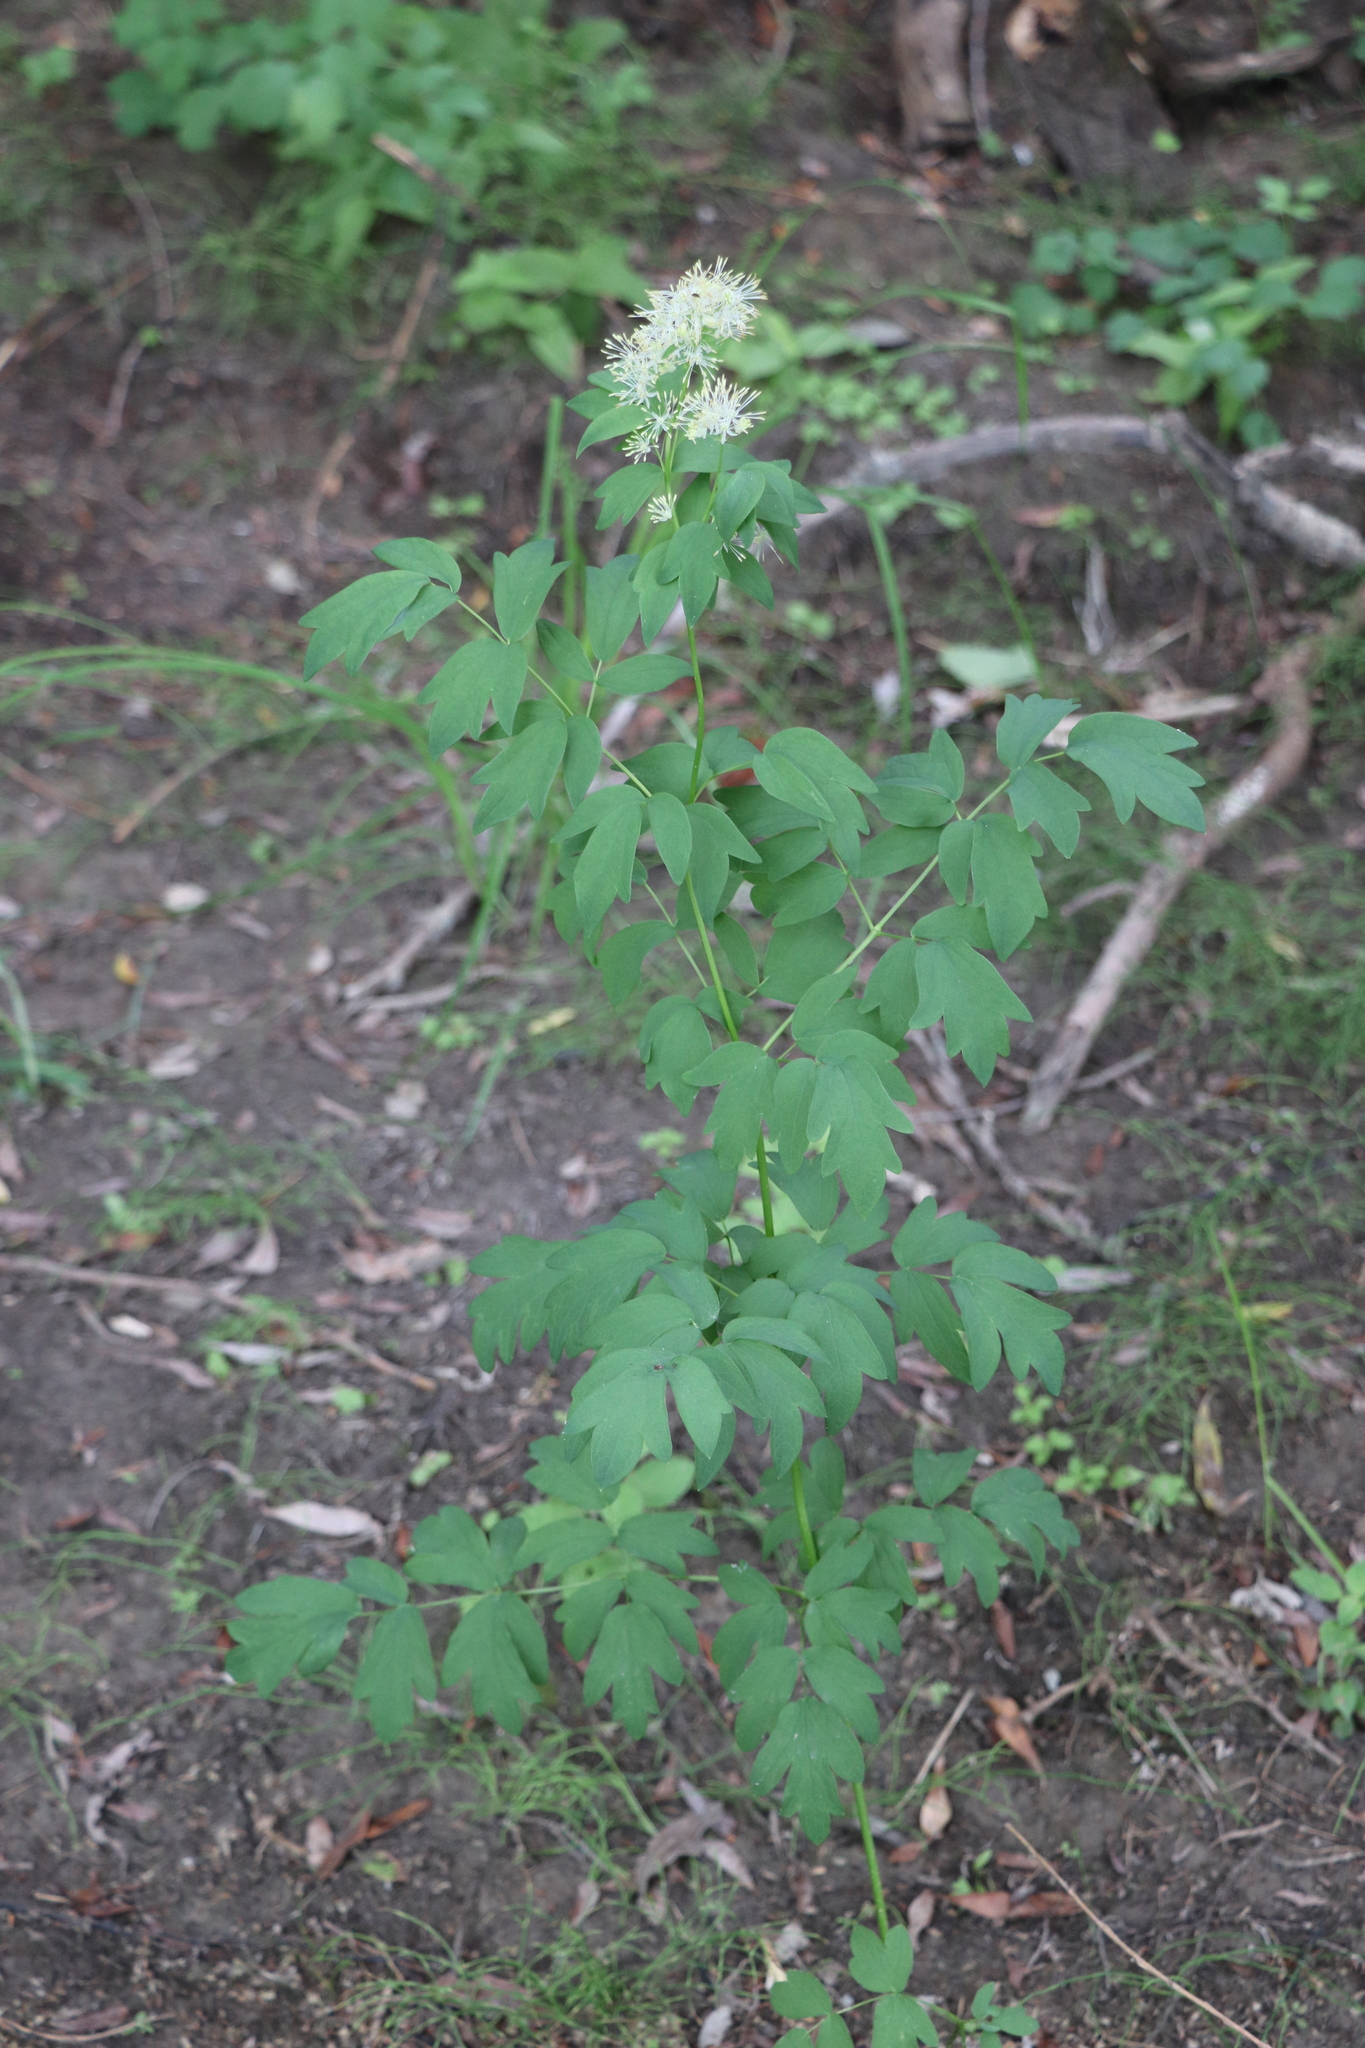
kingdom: Plantae
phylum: Tracheophyta
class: Magnoliopsida
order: Ranunculales
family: Ranunculaceae
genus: Thalictrum
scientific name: Thalictrum flavum
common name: Common meadow-rue
